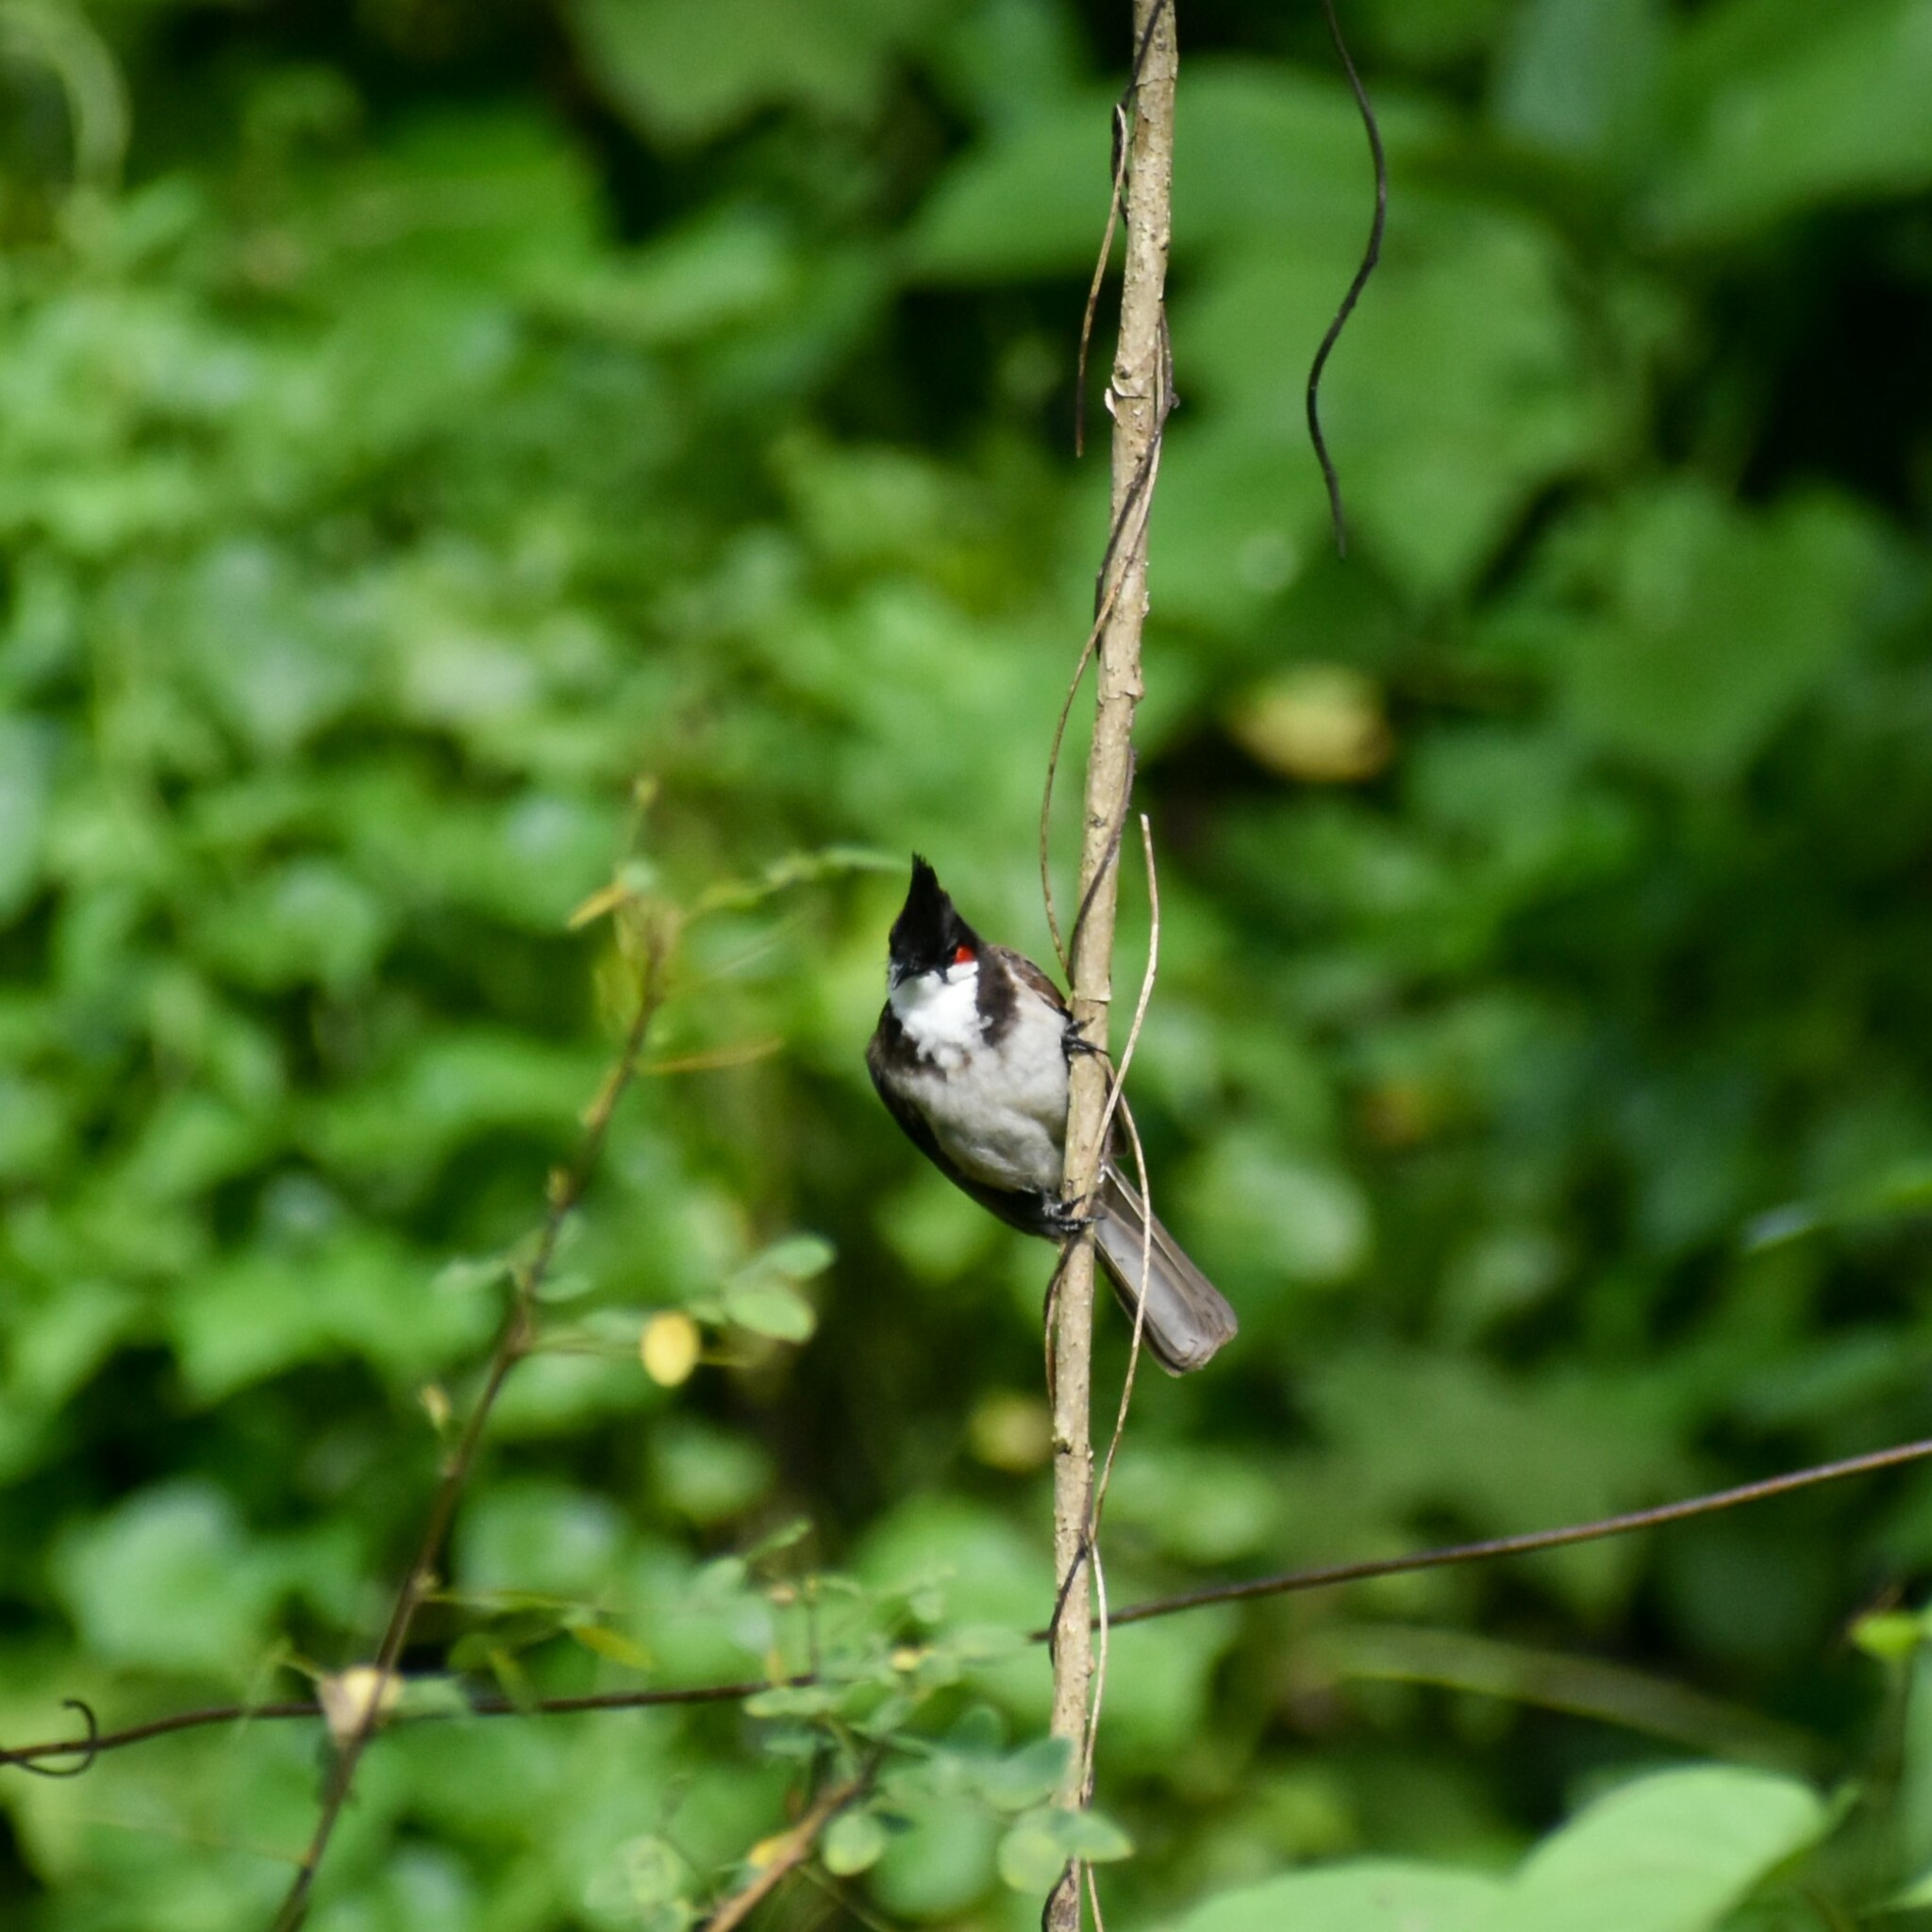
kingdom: Animalia
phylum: Chordata
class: Aves
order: Passeriformes
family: Pycnonotidae
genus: Pycnonotus
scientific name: Pycnonotus jocosus
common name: Red-whiskered bulbul
